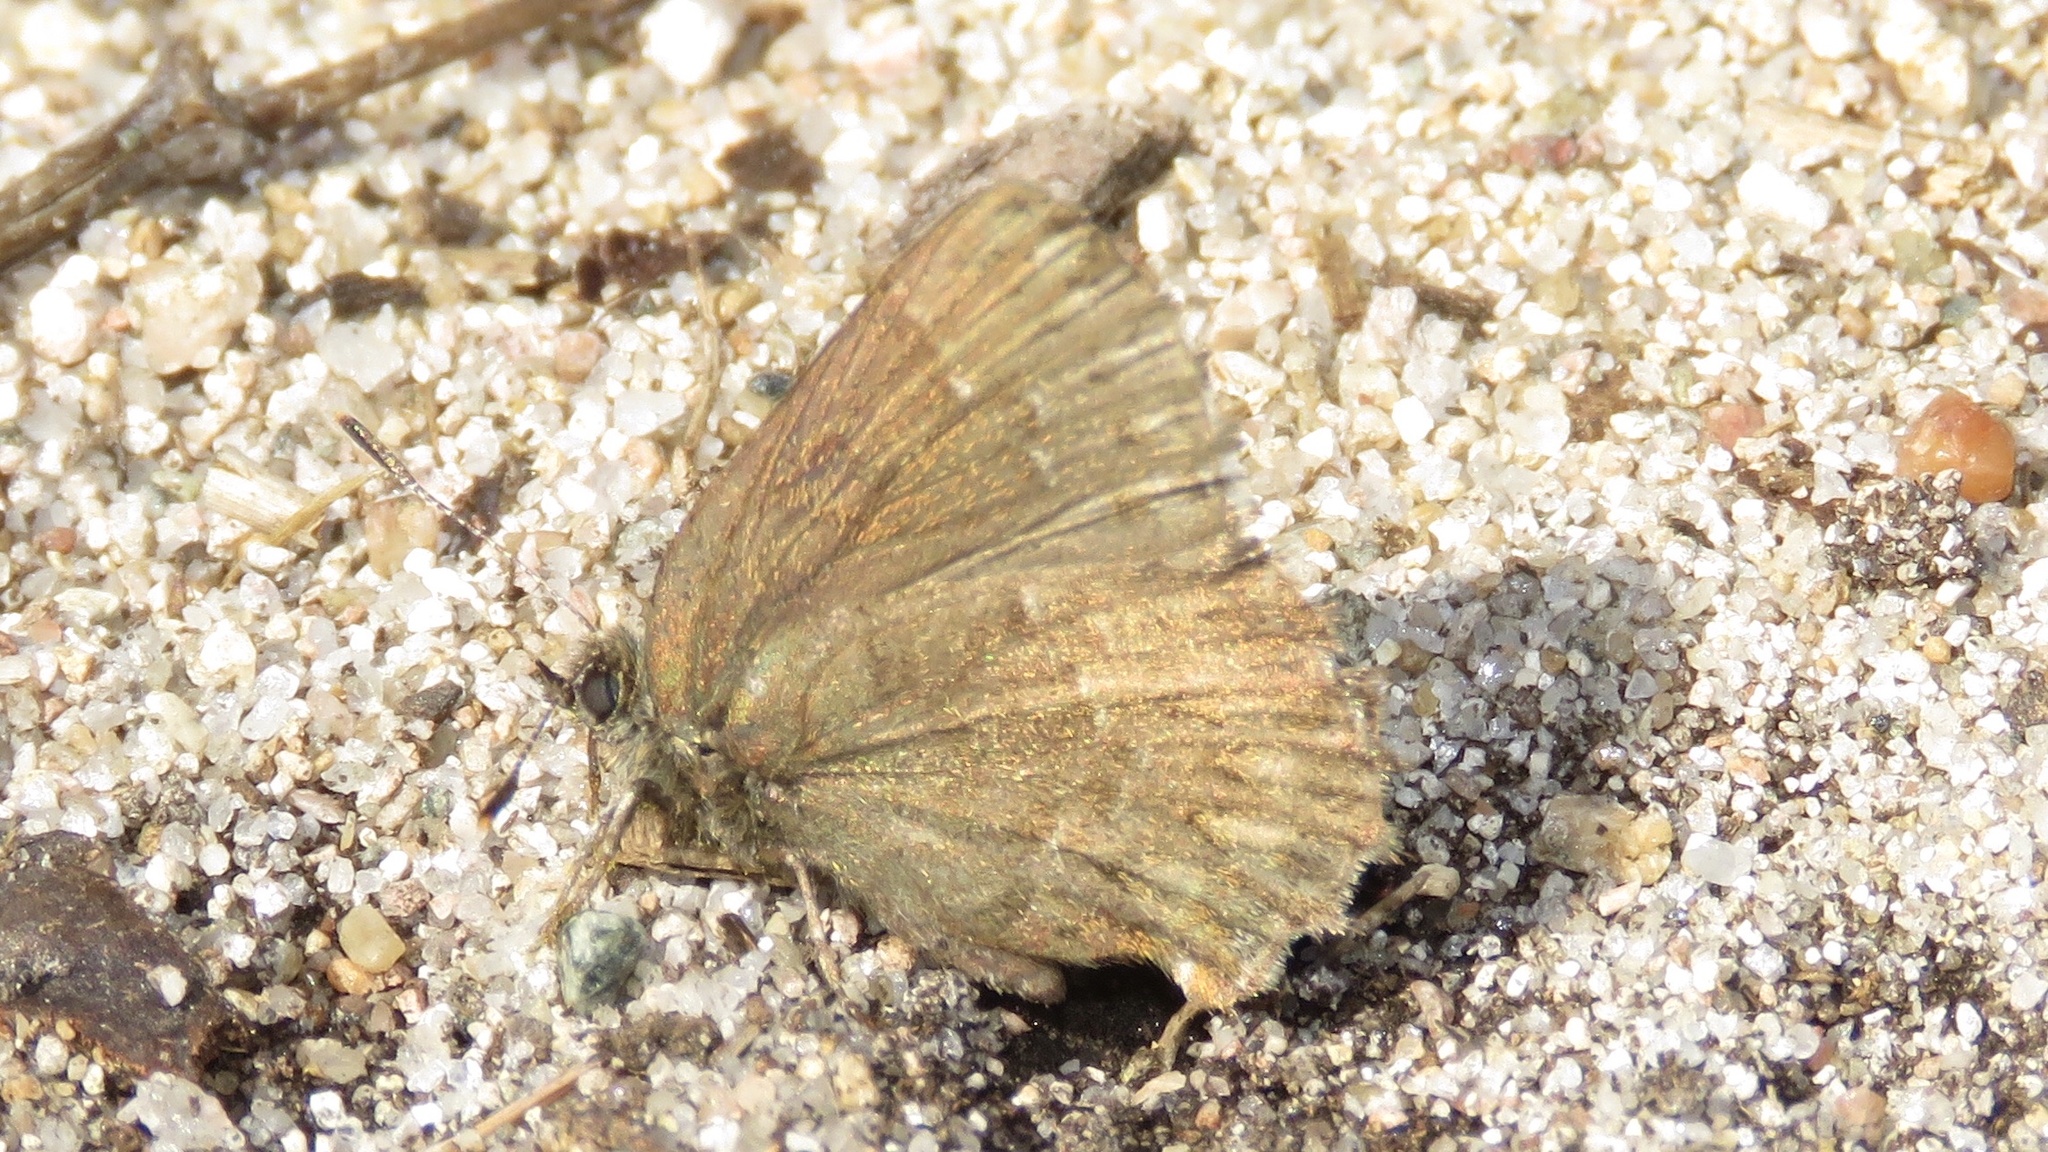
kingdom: Animalia
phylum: Arthropoda
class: Insecta
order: Lepidoptera
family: Lycaenidae
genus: Incisalia
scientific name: Incisalia niphon
